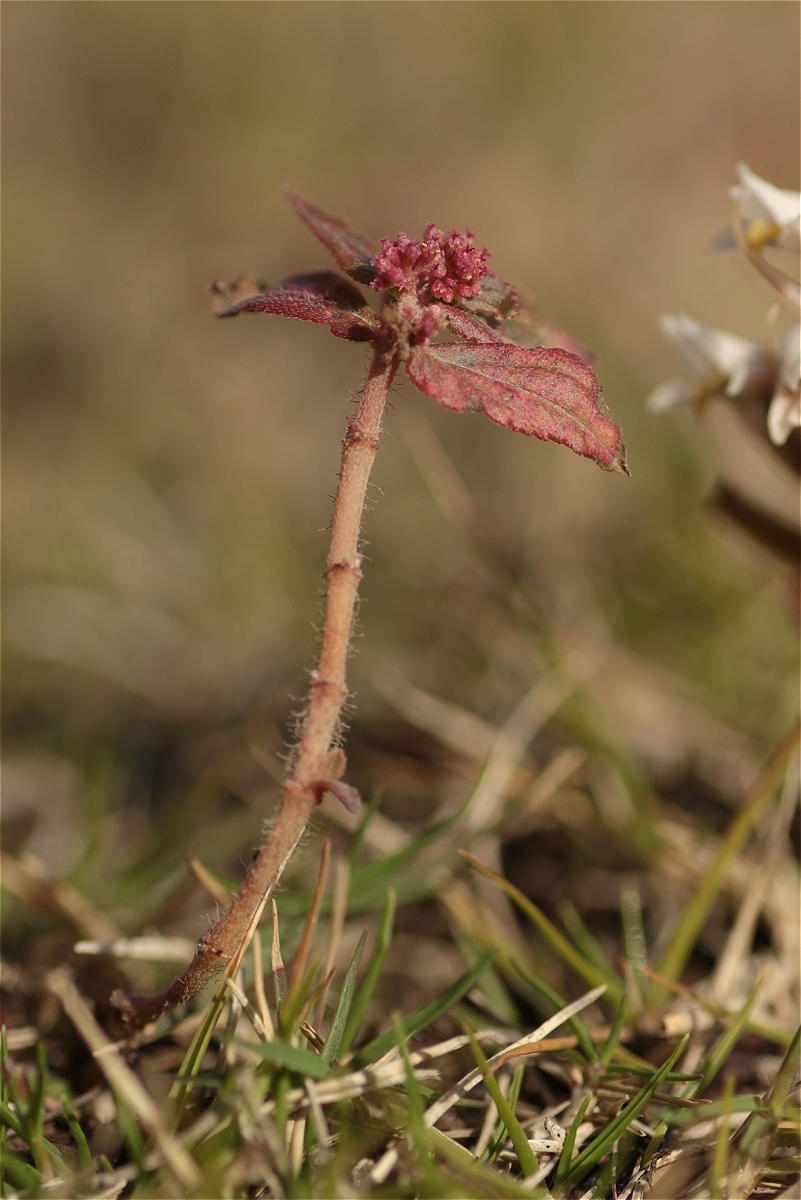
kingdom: Plantae
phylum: Tracheophyta
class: Magnoliopsida
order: Malpighiales
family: Euphorbiaceae
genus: Euphorbia
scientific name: Euphorbia hirta
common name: Pillpod sandmat
